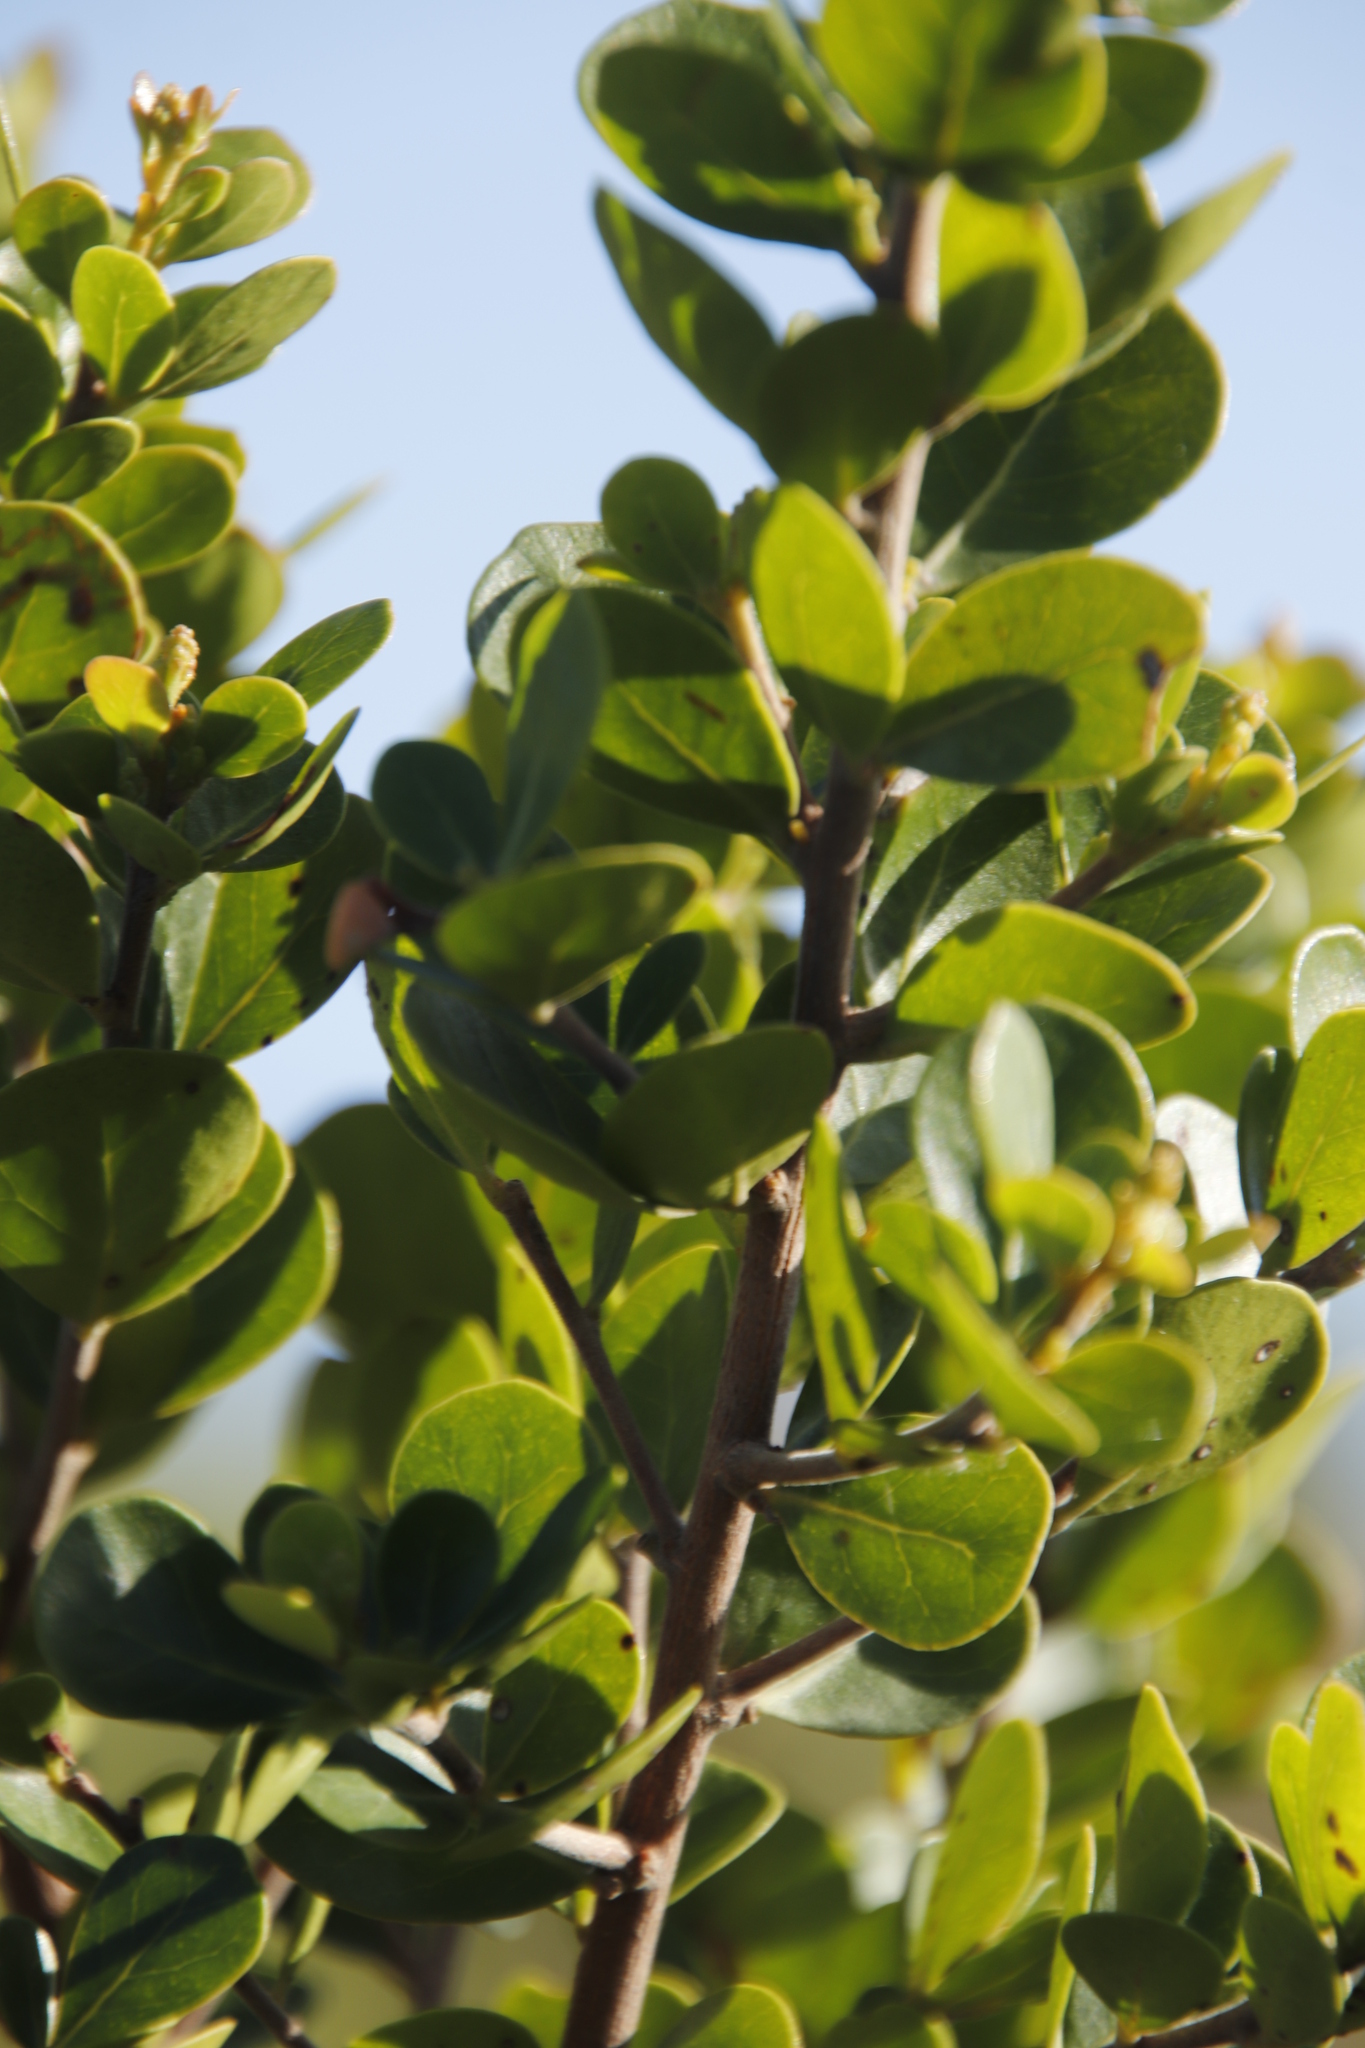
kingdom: Plantae
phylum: Tracheophyta
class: Magnoliopsida
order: Sapindales
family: Anacardiaceae
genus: Searsia
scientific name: Searsia lucida
